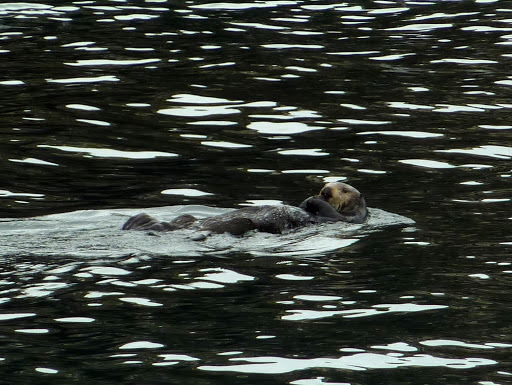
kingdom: Animalia
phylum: Chordata
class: Mammalia
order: Carnivora
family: Mustelidae
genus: Enhydra
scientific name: Enhydra lutris
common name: Sea otter
